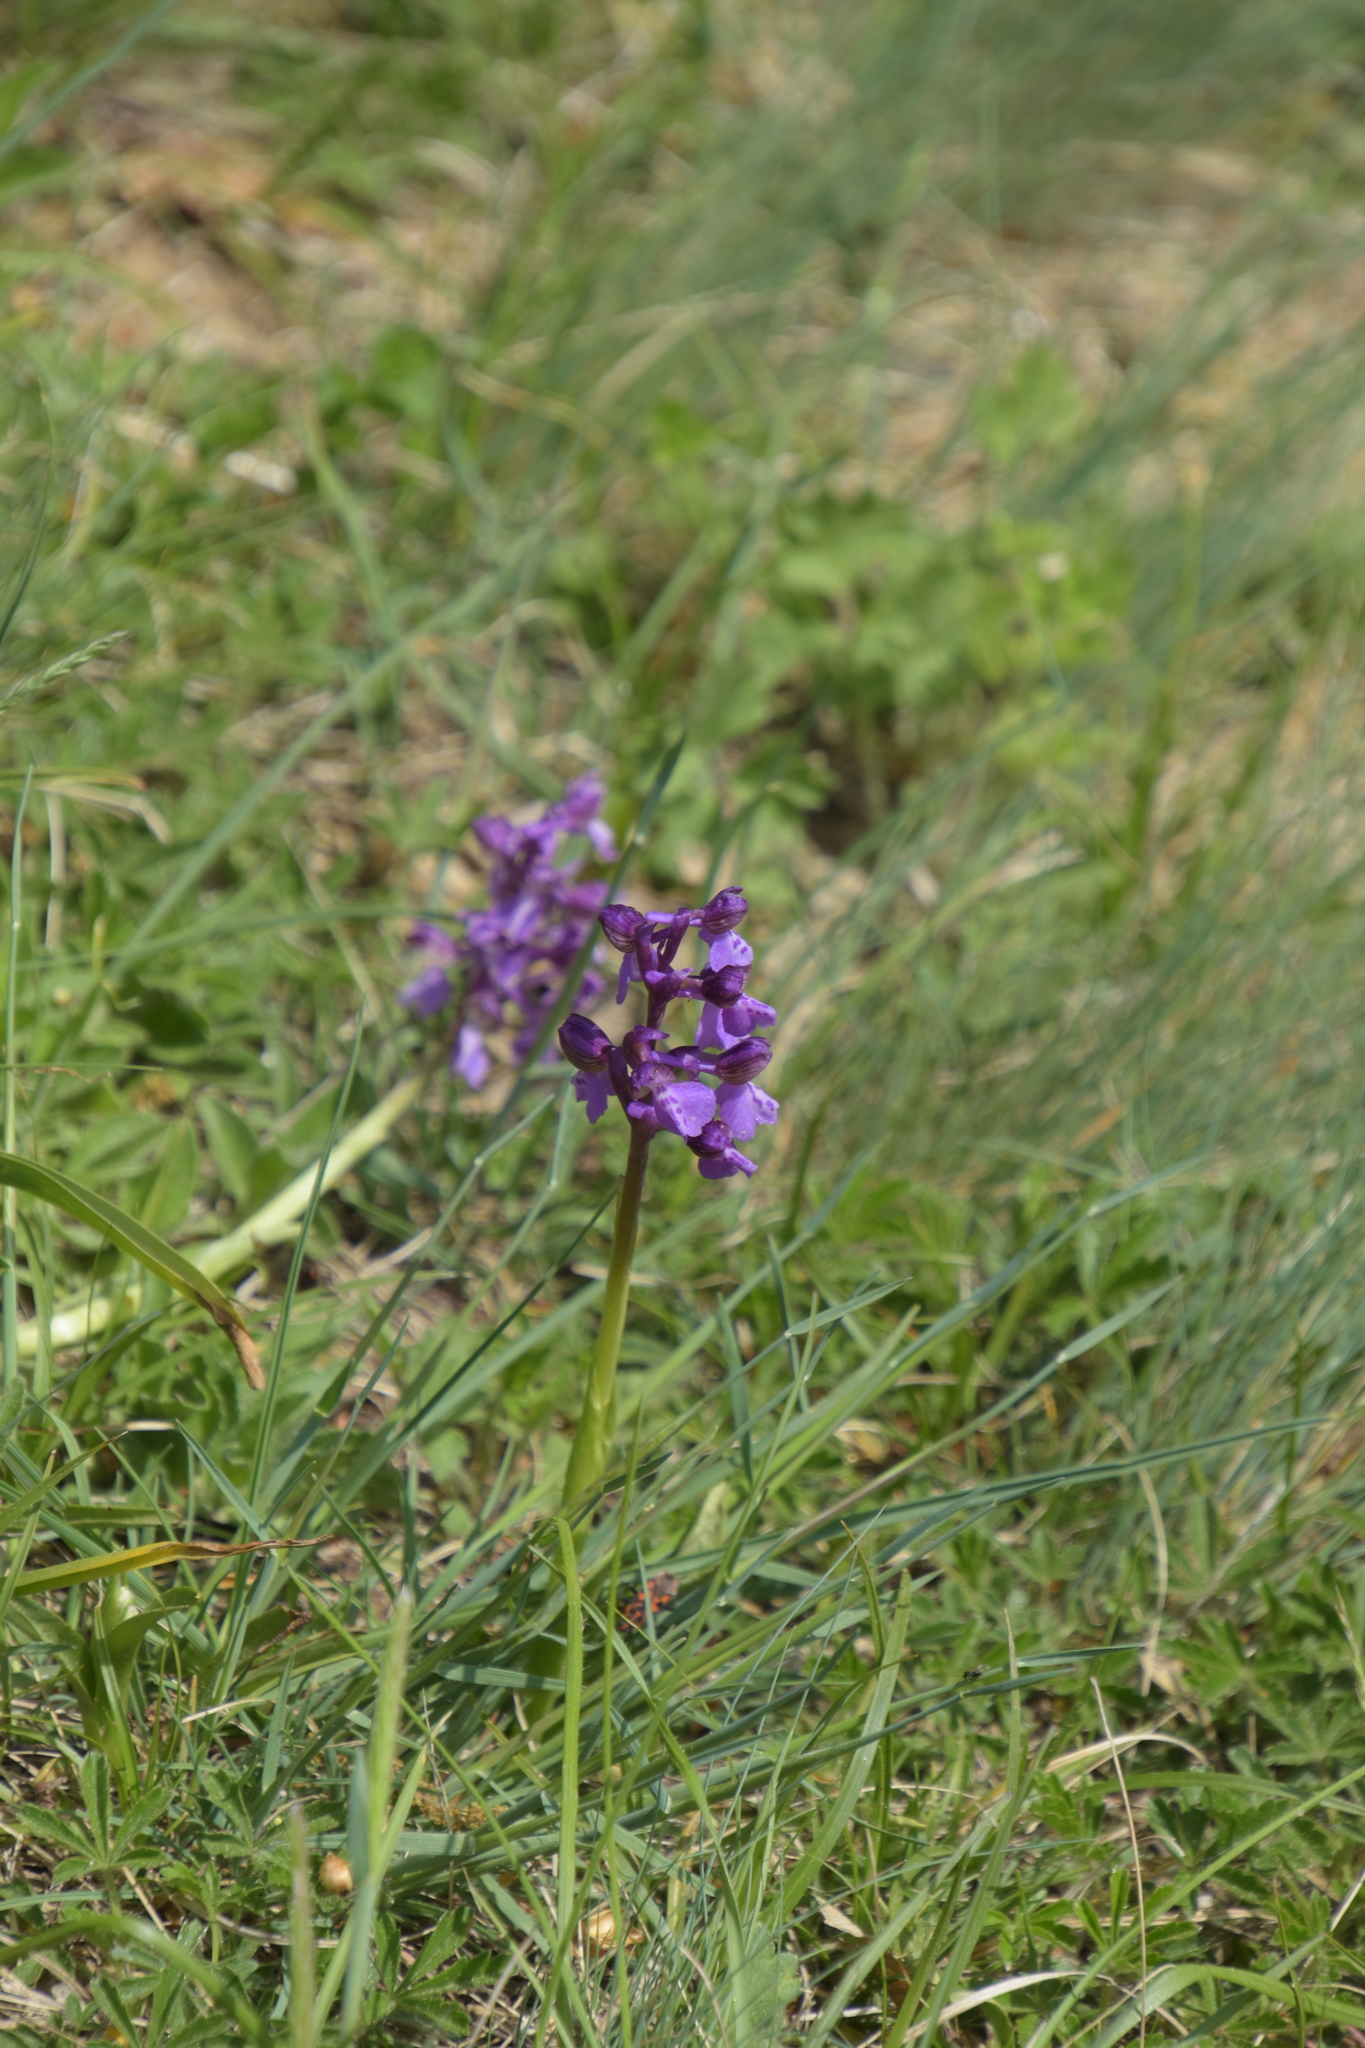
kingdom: Plantae
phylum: Tracheophyta
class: Liliopsida
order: Asparagales
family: Orchidaceae
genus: Anacamptis
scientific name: Anacamptis morio
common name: Green-winged orchid
